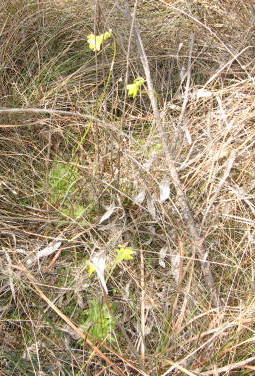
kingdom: Plantae
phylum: Tracheophyta
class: Magnoliopsida
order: Lamiales
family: Lentibulariaceae
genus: Pinguicula
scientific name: Pinguicula lutea
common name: Yellow butterwort
